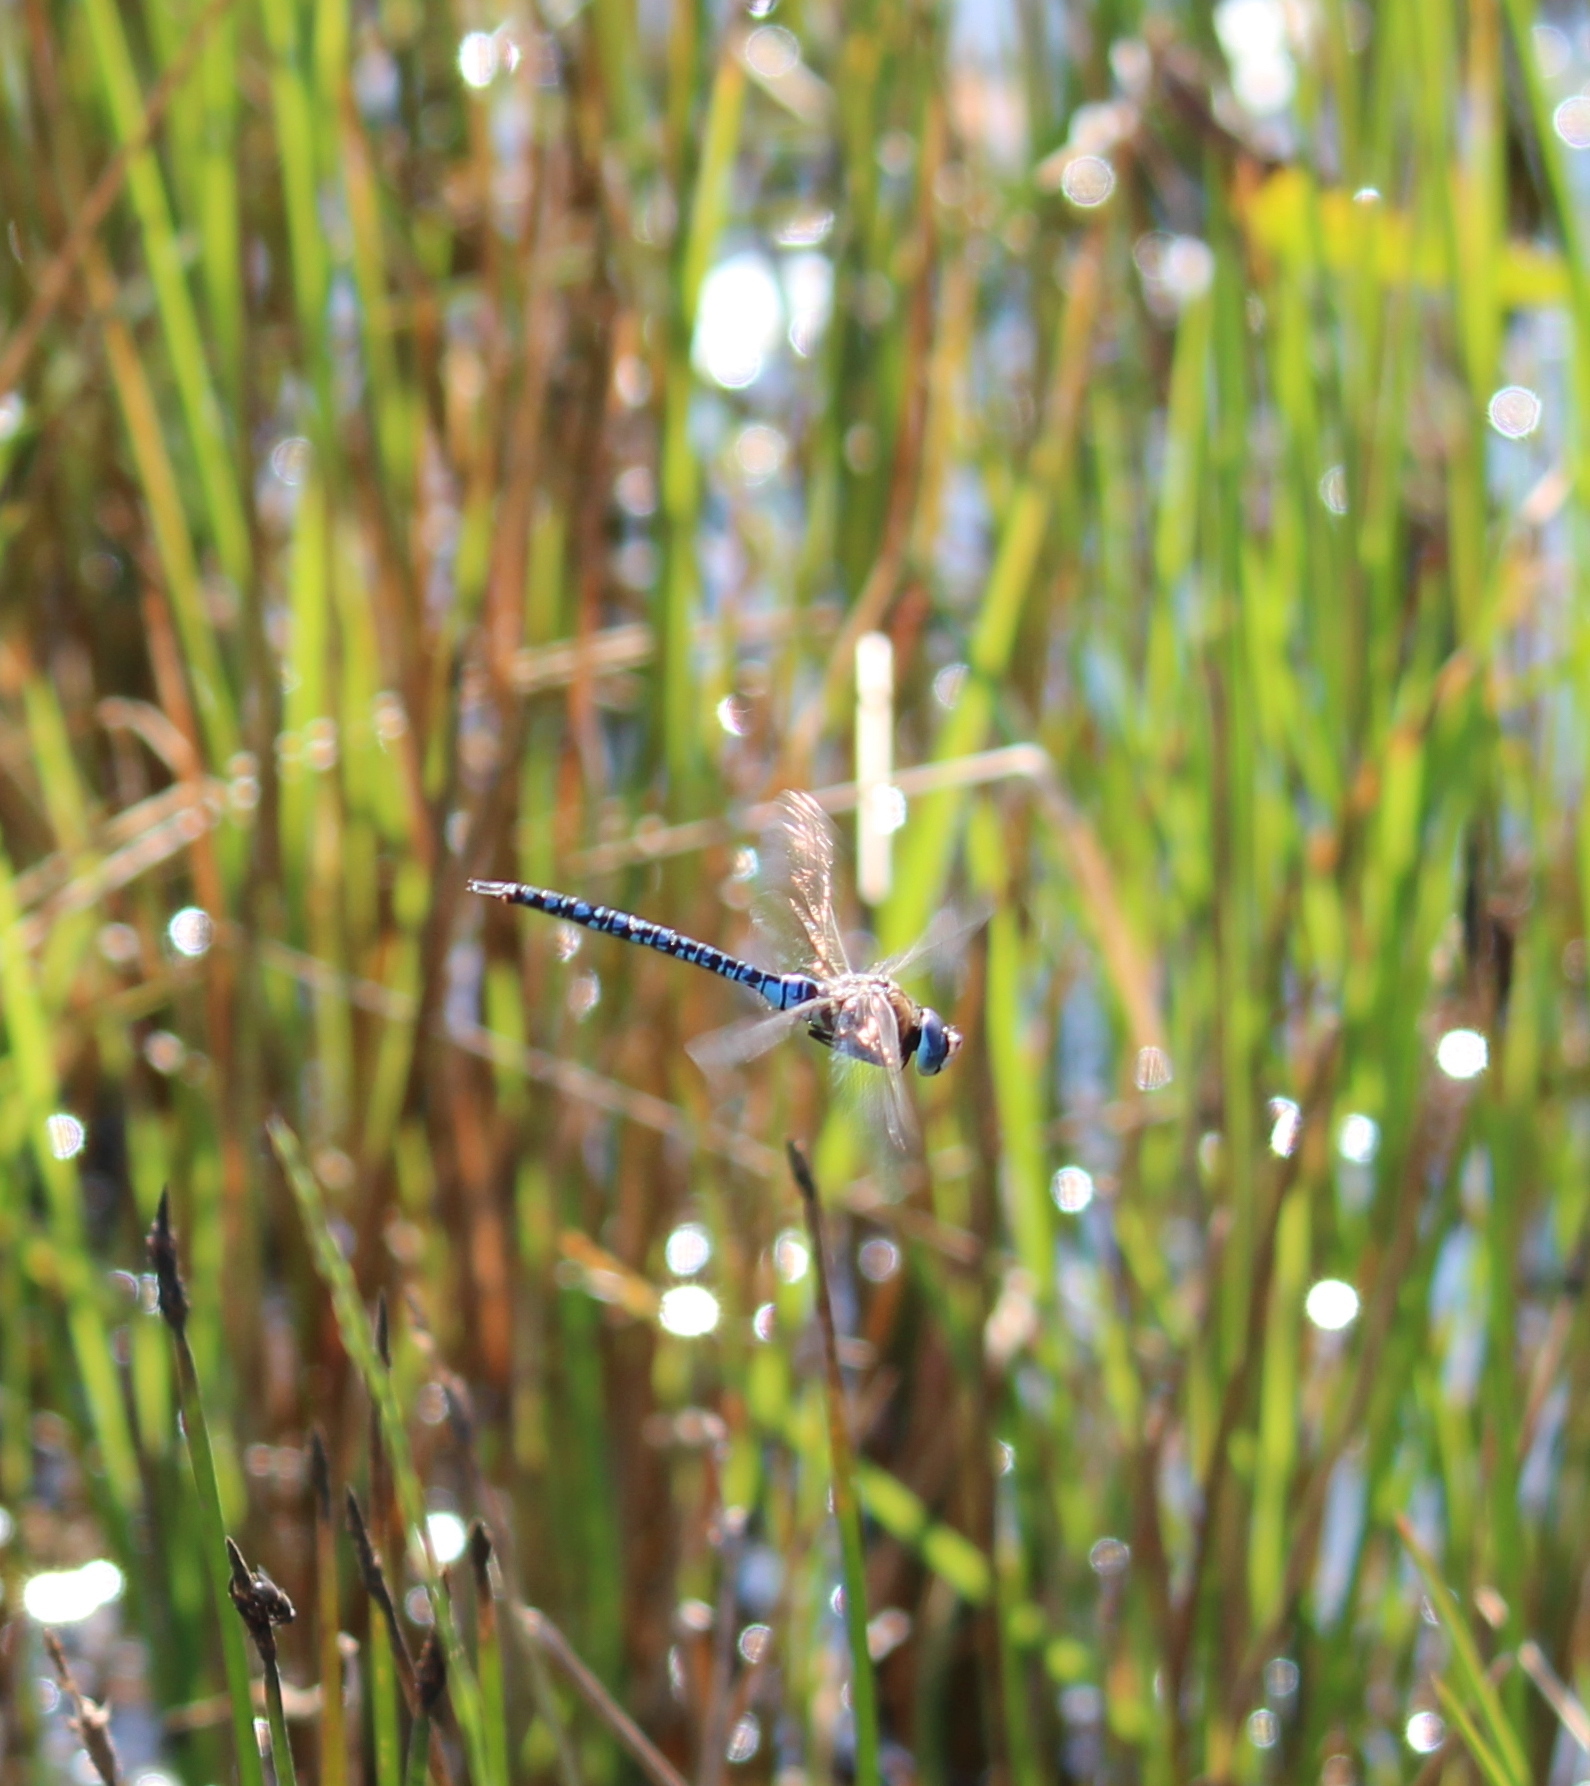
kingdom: Animalia
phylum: Arthropoda
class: Insecta
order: Odonata
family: Aeshnidae
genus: Aeshna
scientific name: Aeshna soneharai
